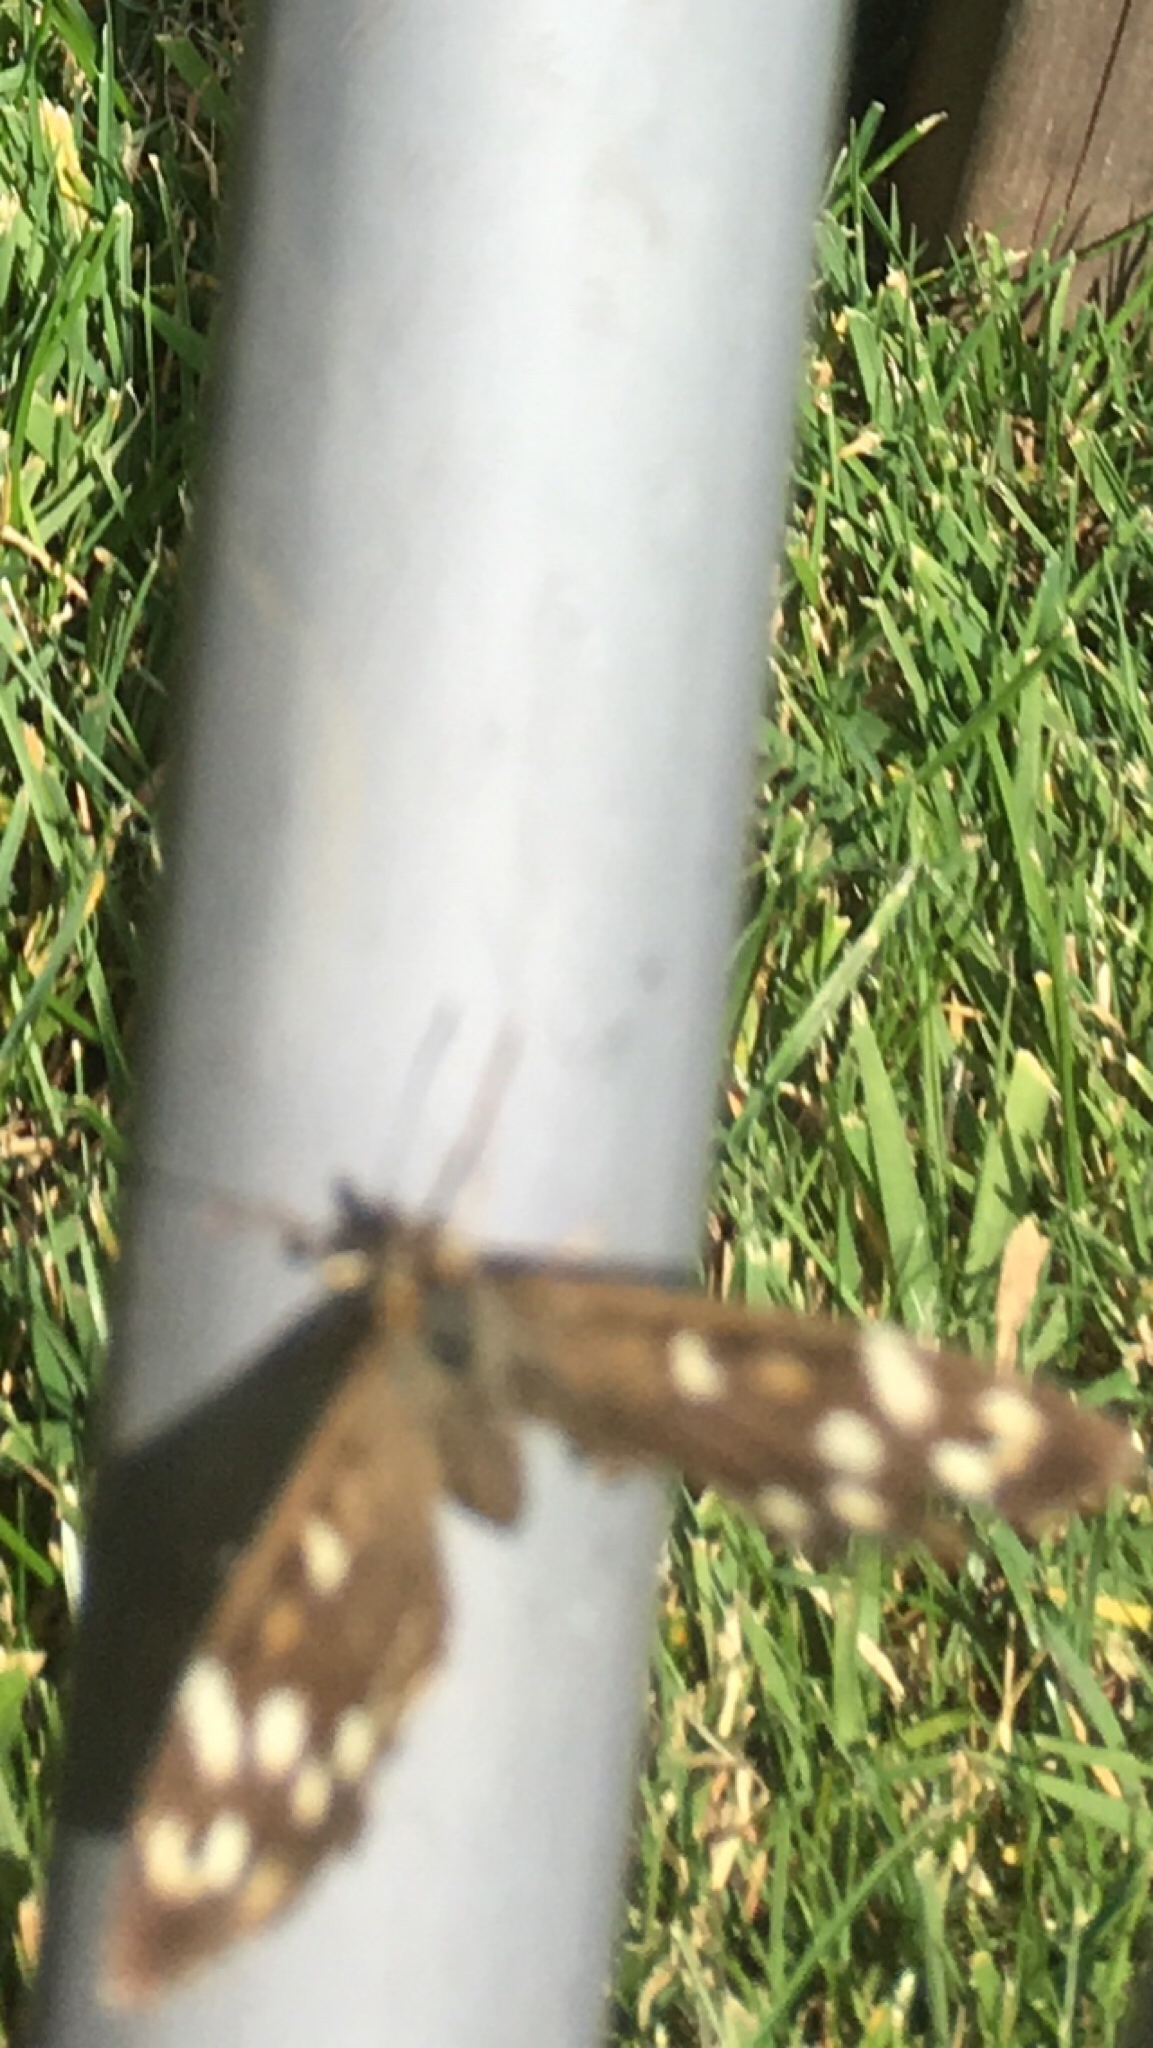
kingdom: Animalia
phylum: Arthropoda
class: Insecta
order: Lepidoptera
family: Nymphalidae
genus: Pararge
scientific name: Pararge aegeria
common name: Speckled wood
